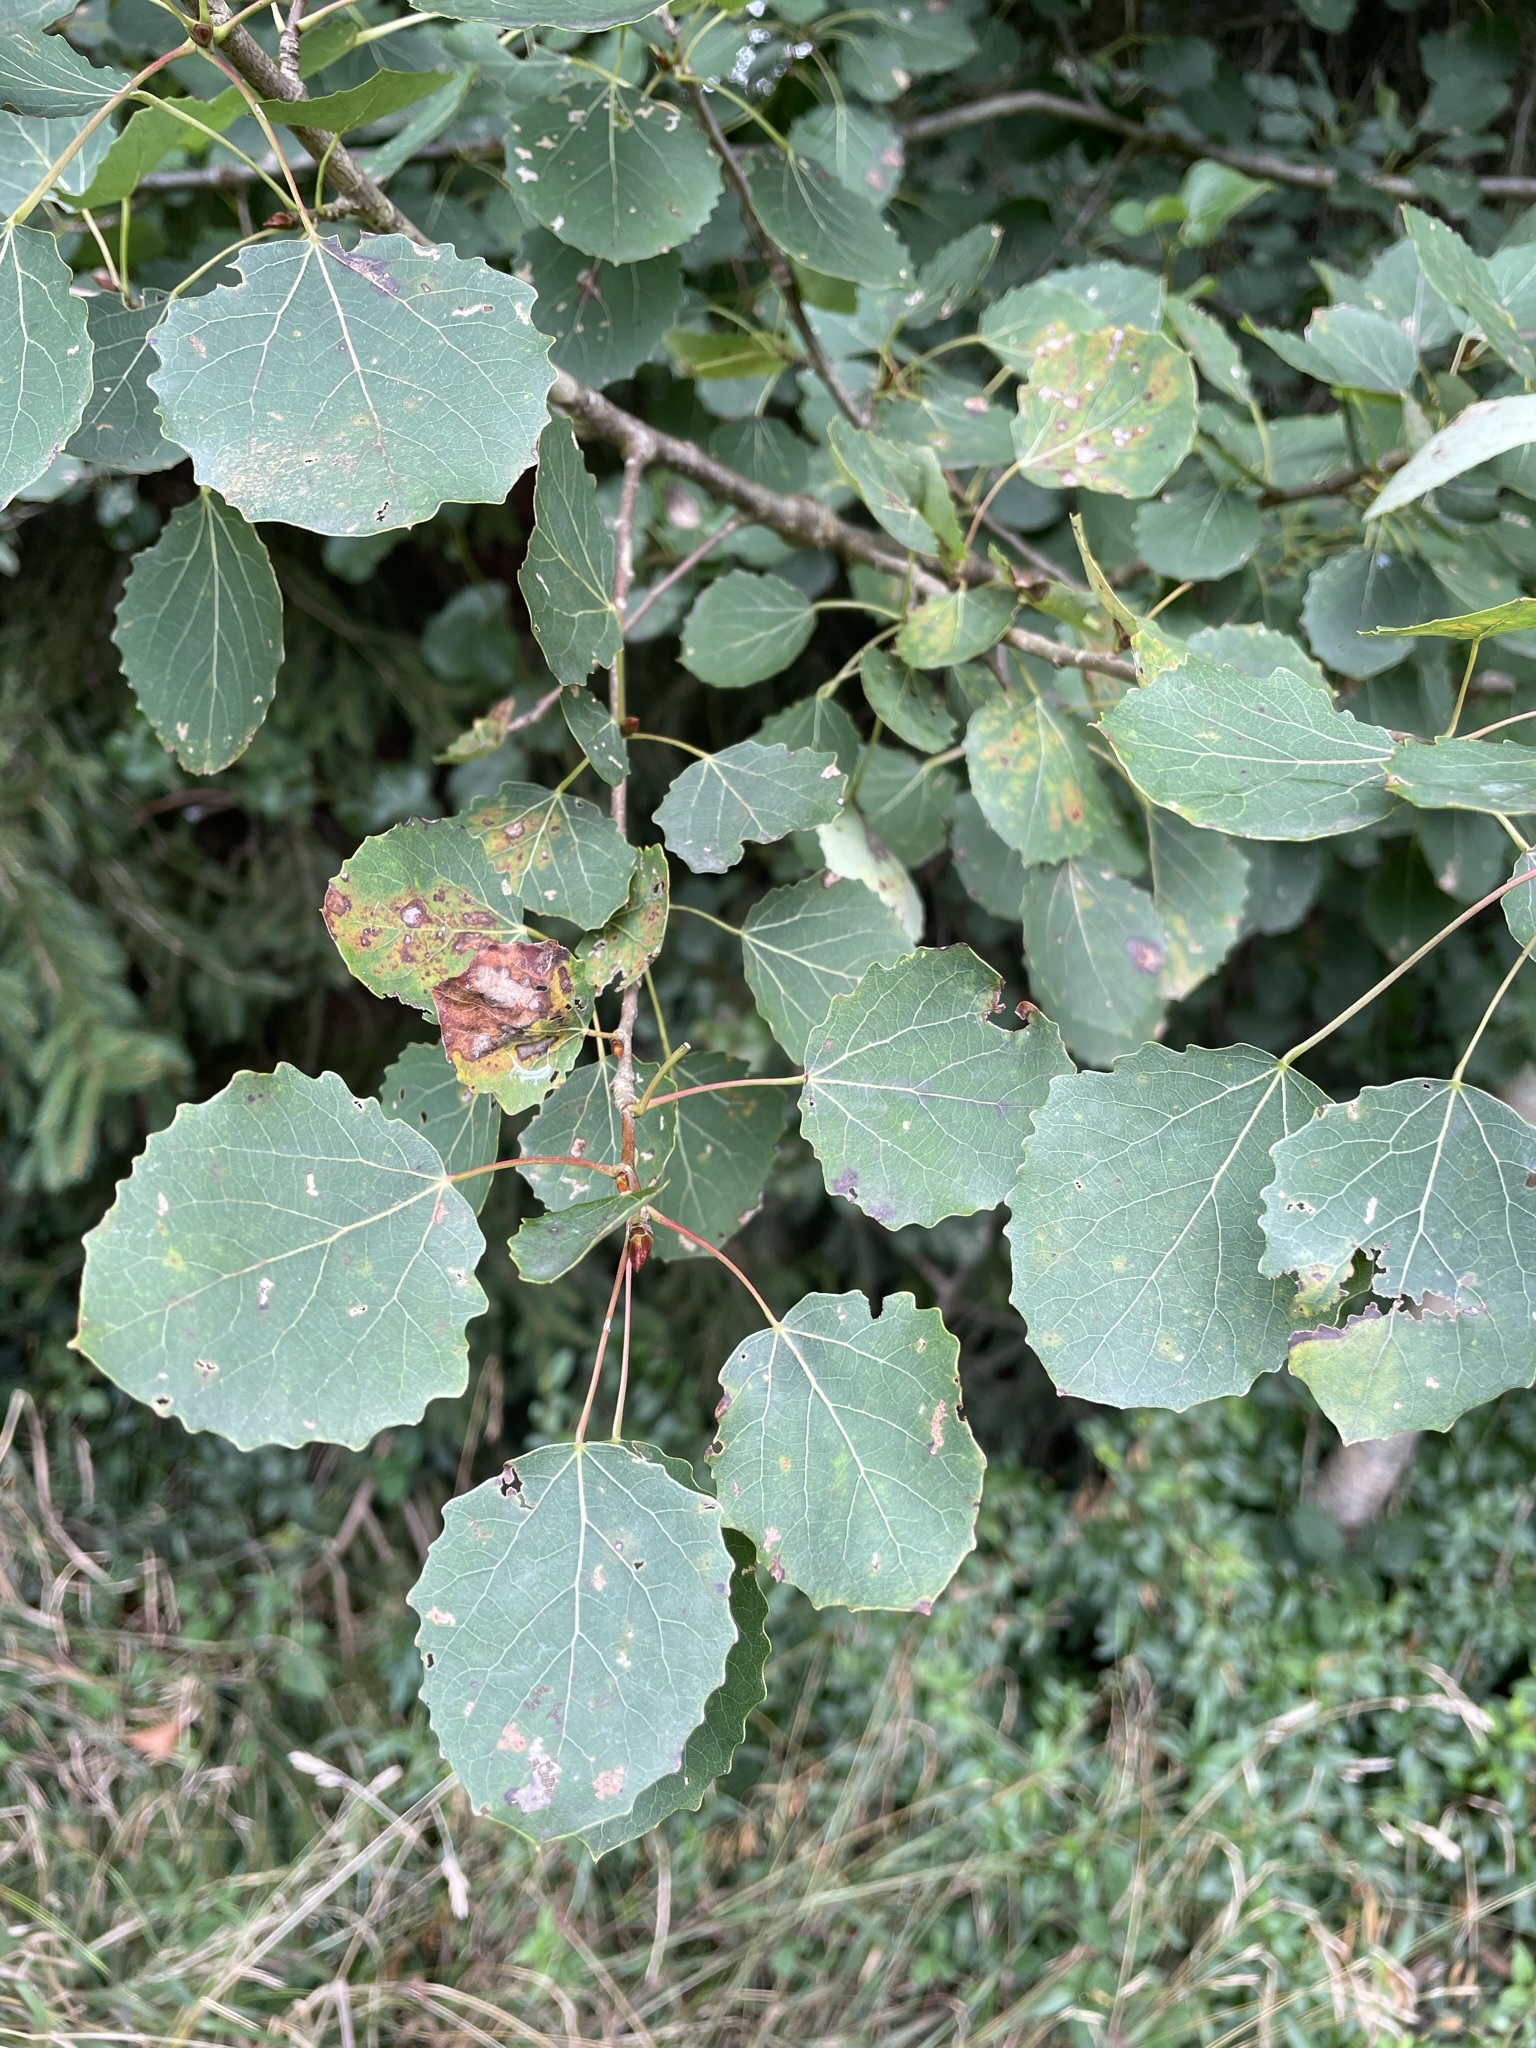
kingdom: Plantae
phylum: Tracheophyta
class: Magnoliopsida
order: Malpighiales
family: Salicaceae
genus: Populus
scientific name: Populus tremula
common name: European aspen
